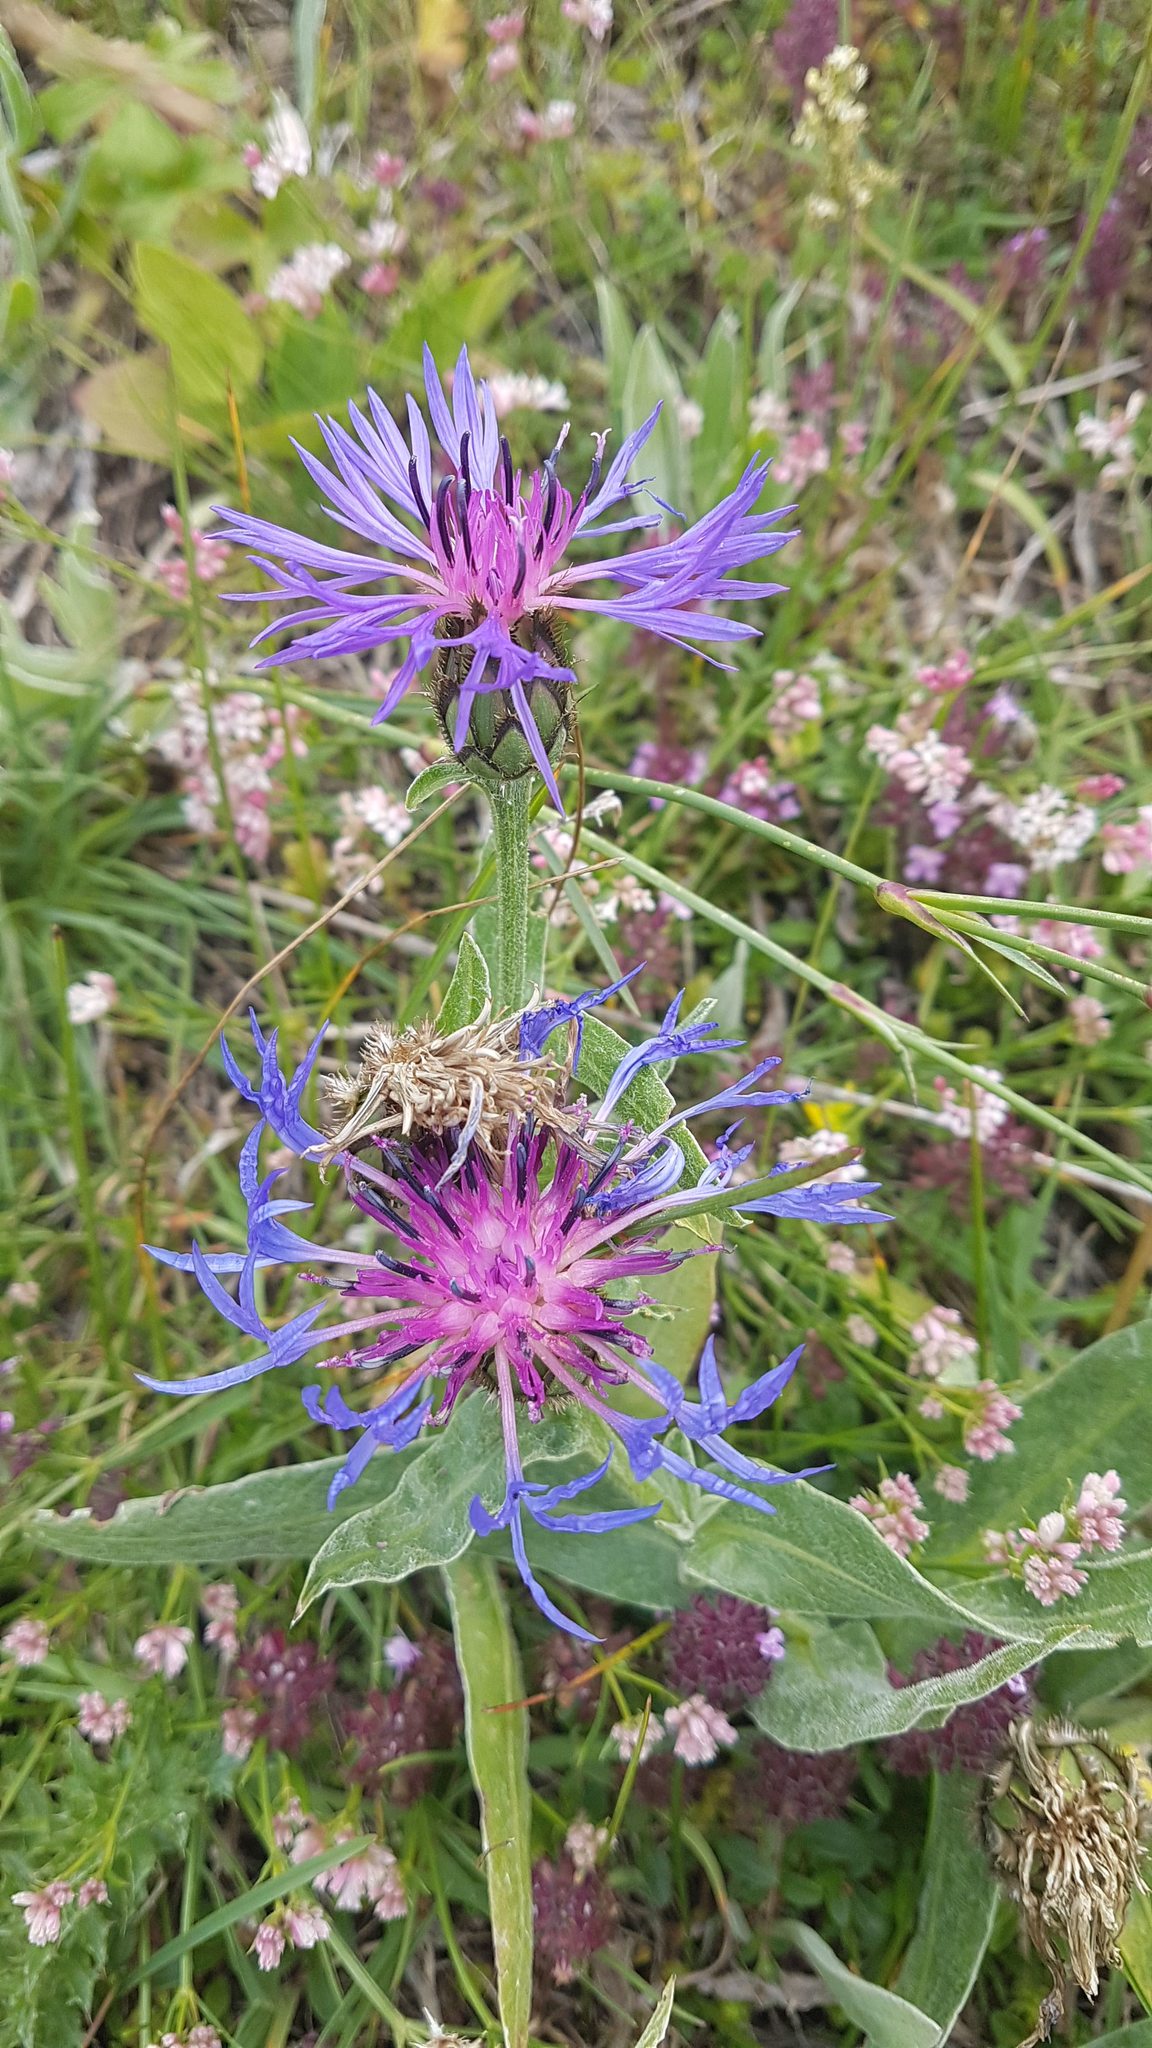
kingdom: Plantae
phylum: Tracheophyta
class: Magnoliopsida
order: Asterales
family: Asteraceae
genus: Centaurea
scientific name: Centaurea triumfettii
